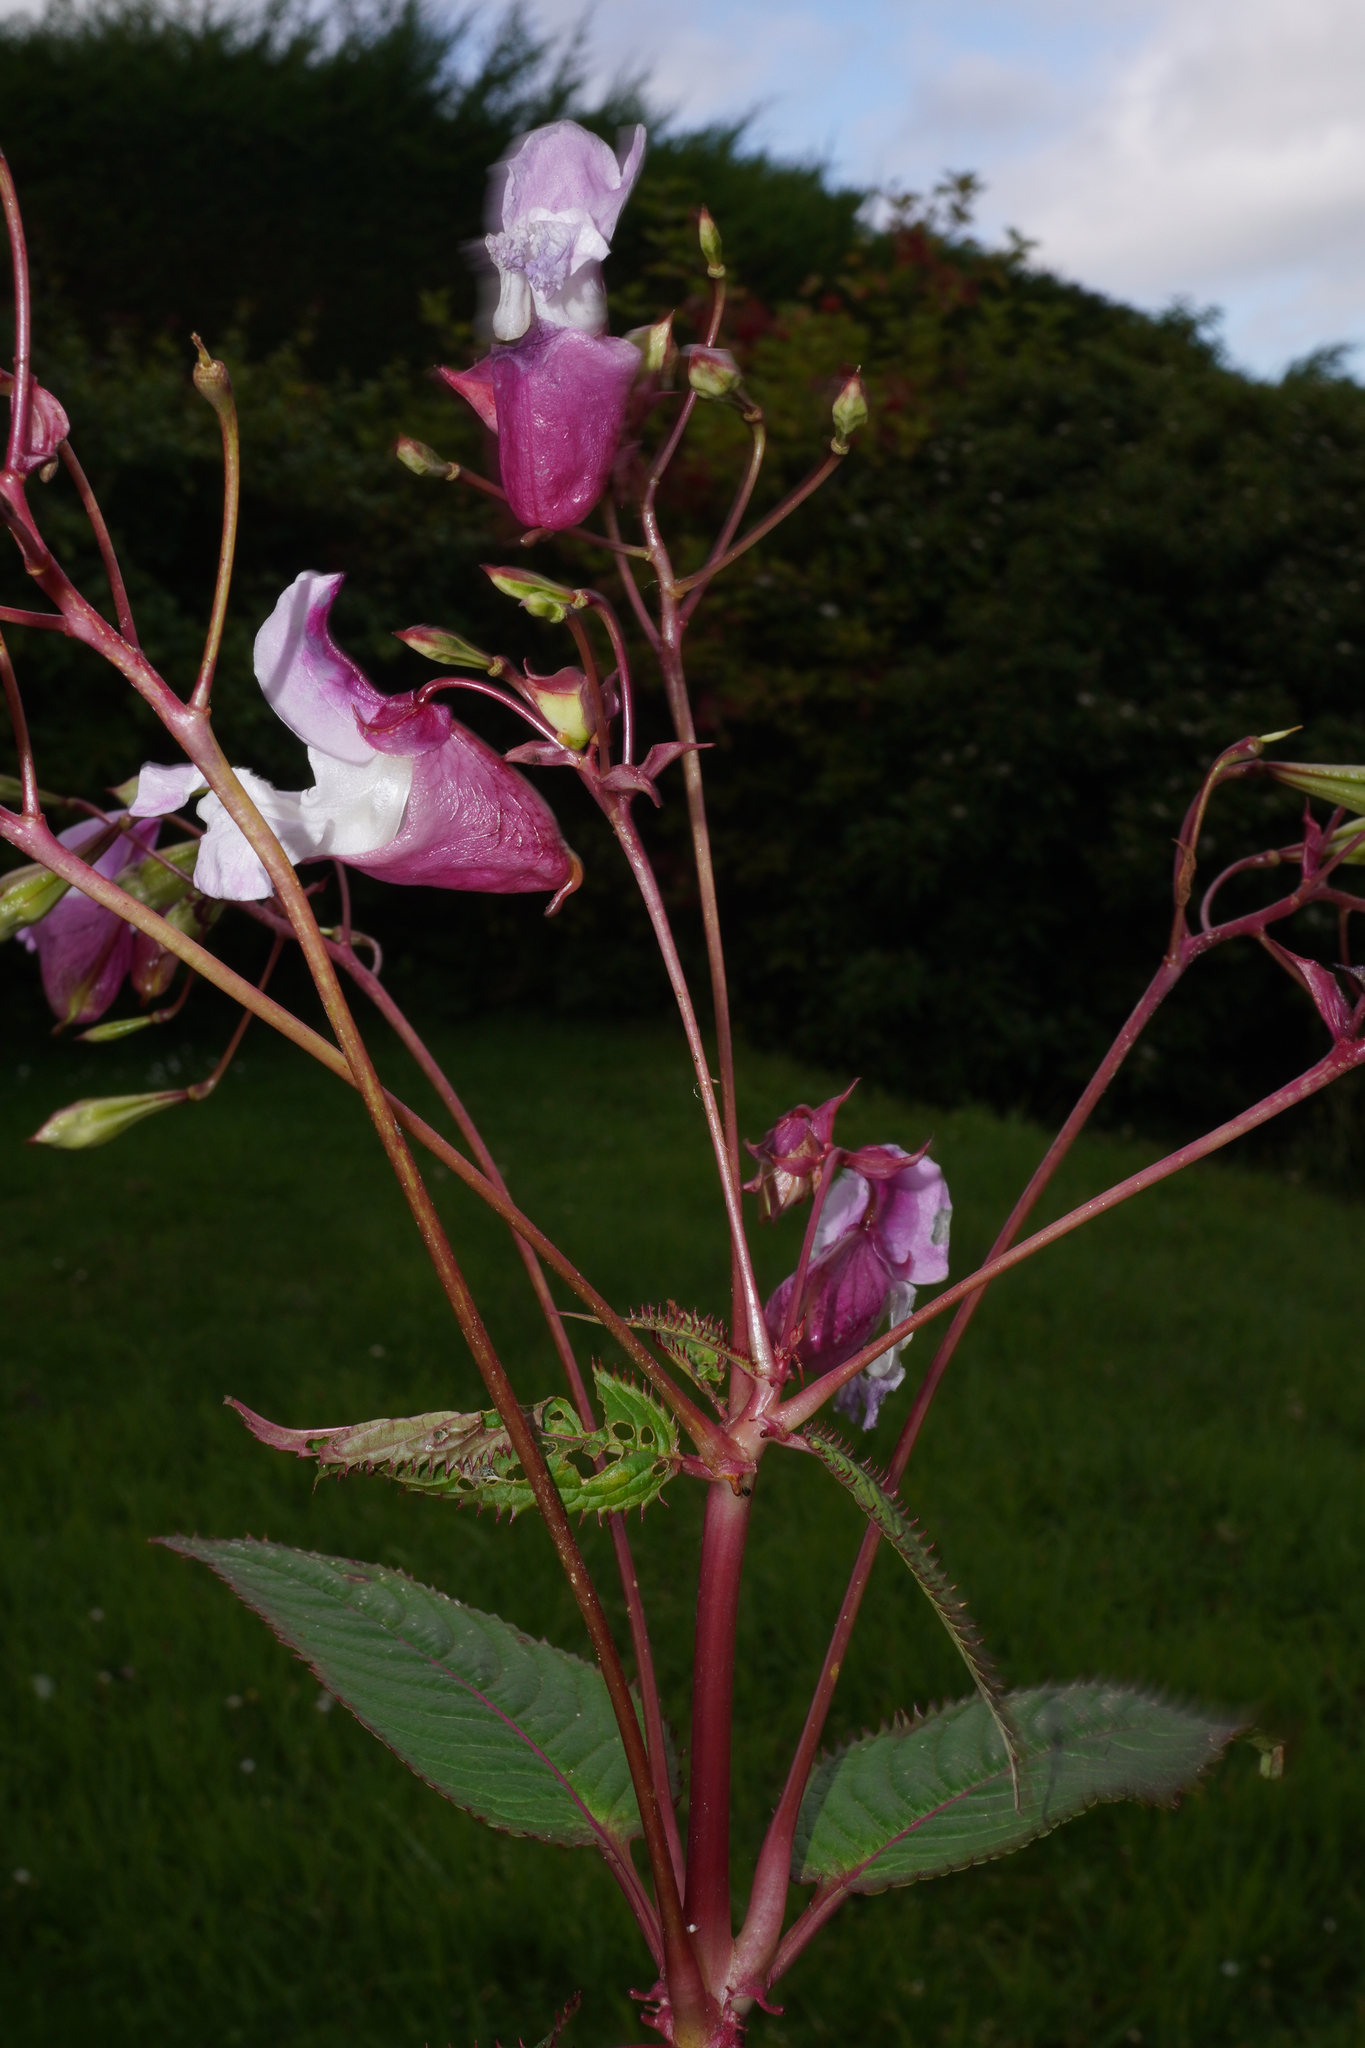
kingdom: Plantae
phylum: Tracheophyta
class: Magnoliopsida
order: Ericales
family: Balsaminaceae
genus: Impatiens
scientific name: Impatiens glandulifera
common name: Himalayan balsam
